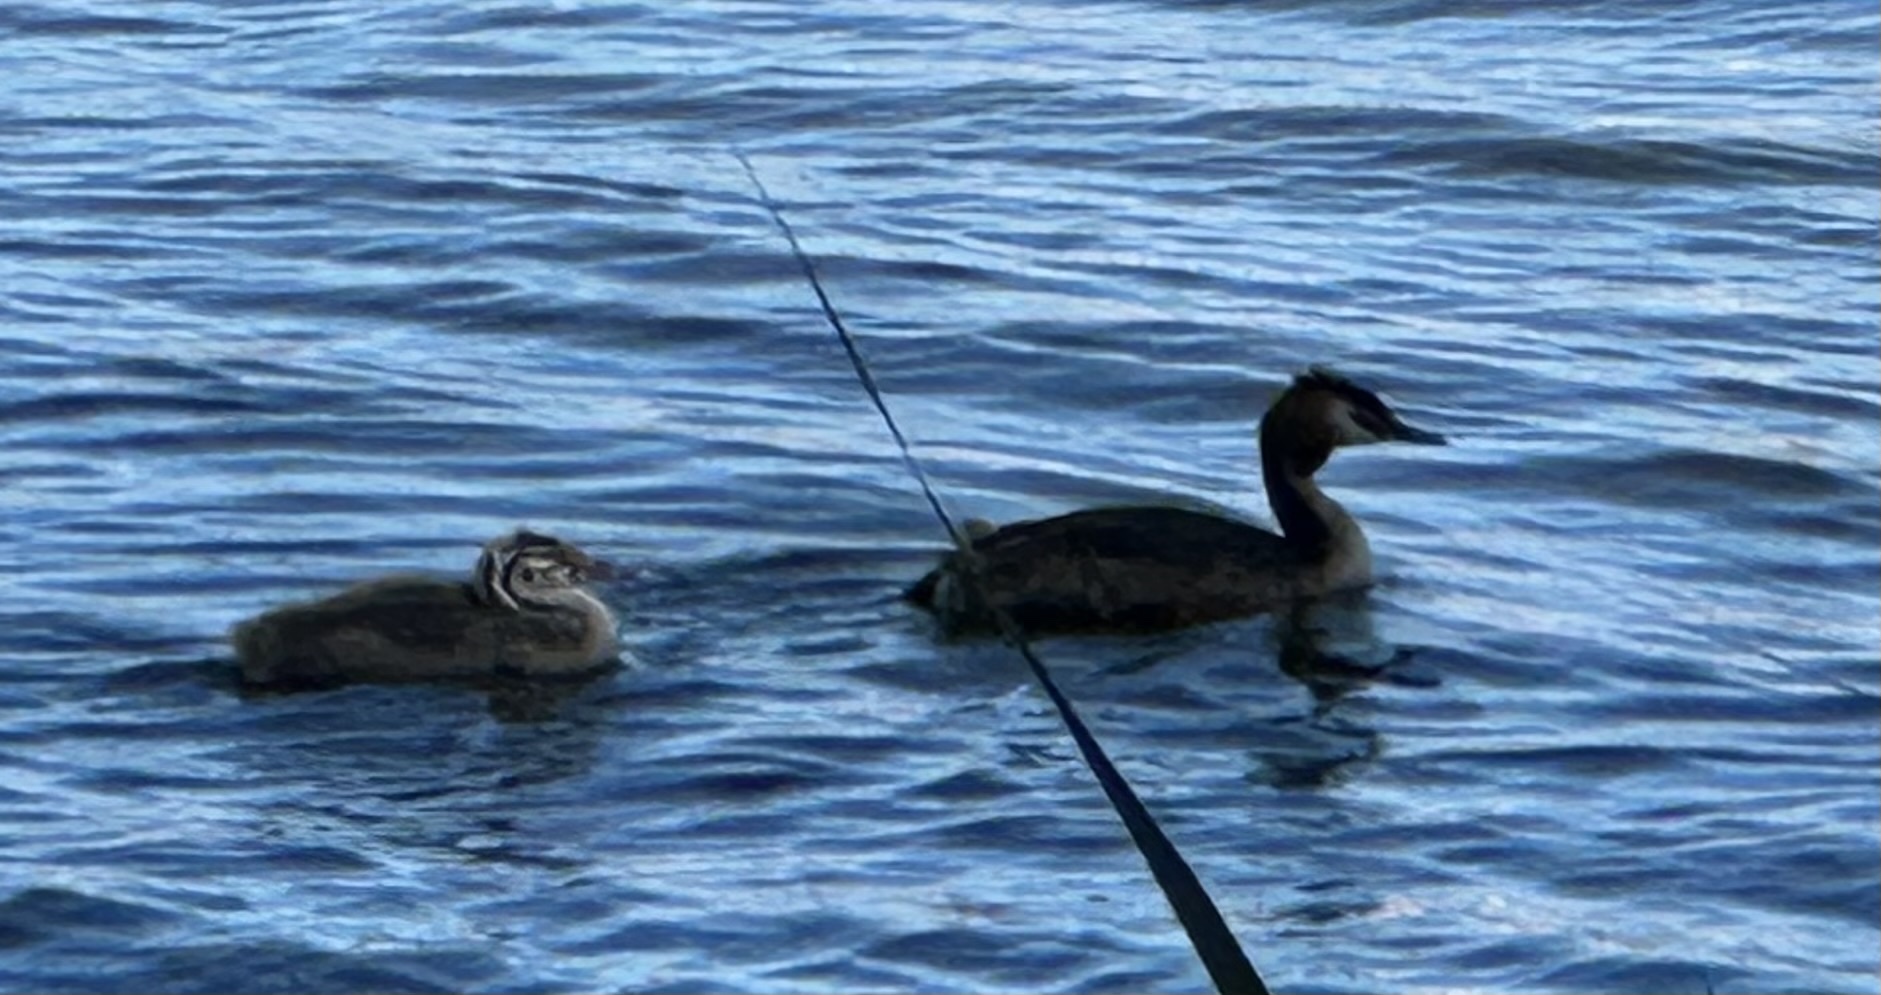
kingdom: Animalia
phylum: Chordata
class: Aves
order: Podicipediformes
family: Podicipedidae
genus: Podiceps
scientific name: Podiceps cristatus
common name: Great crested grebe
